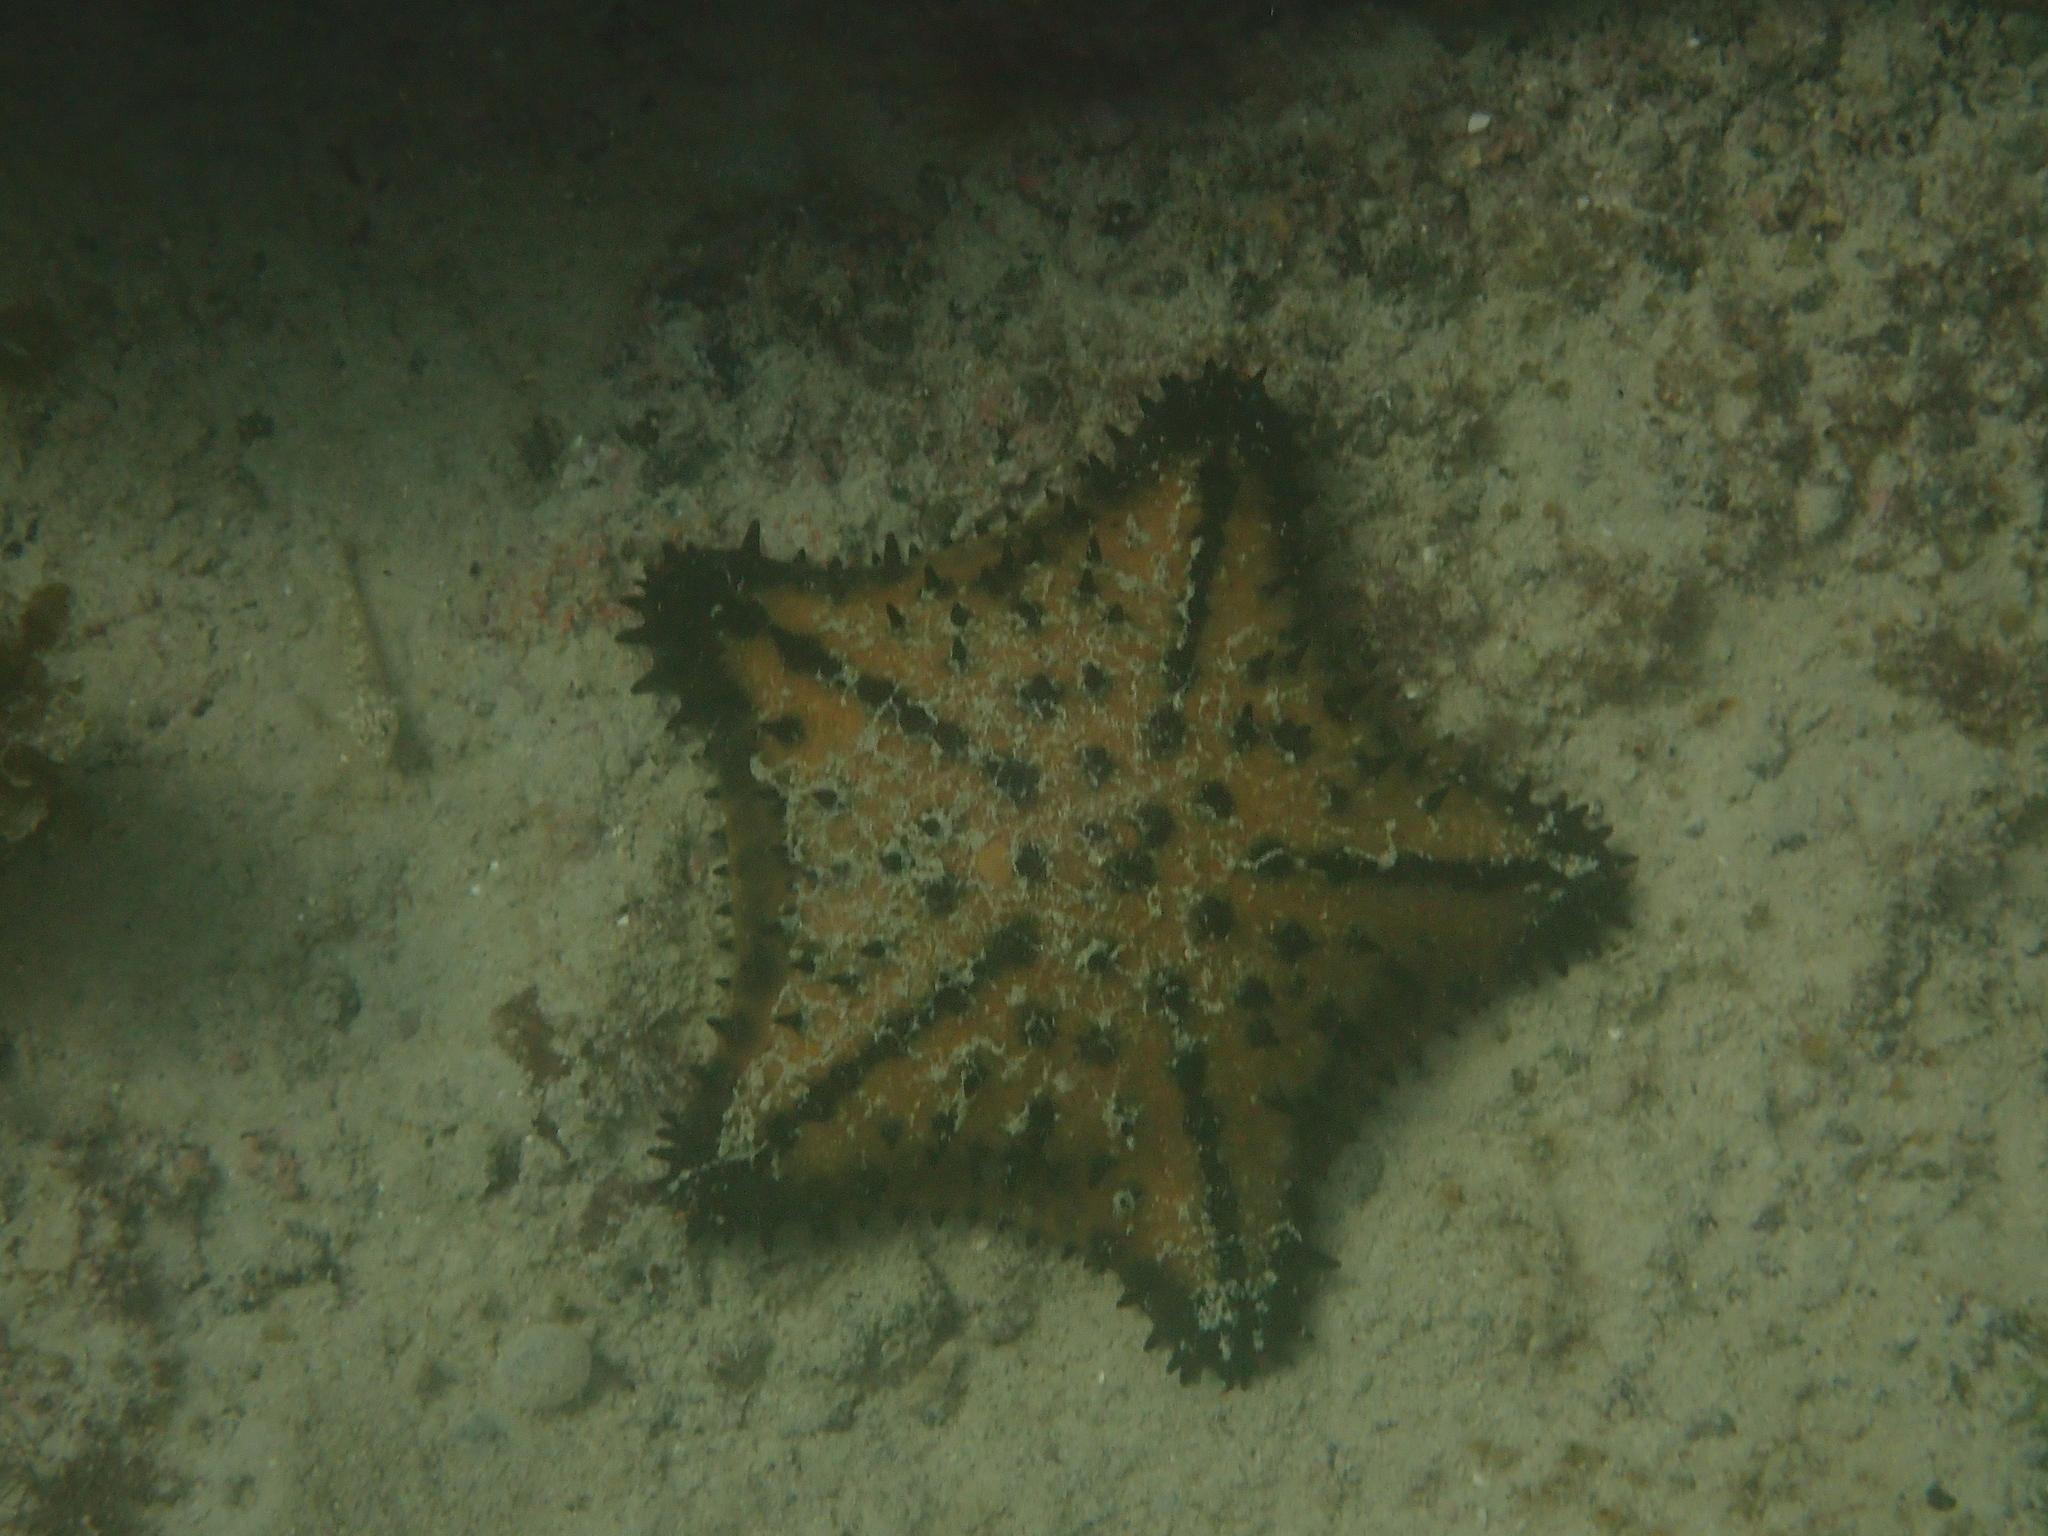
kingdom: Animalia
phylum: Echinodermata
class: Asteroidea
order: Valvatida
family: Oreasteridae
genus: Nidorellia
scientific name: Nidorellia armata
